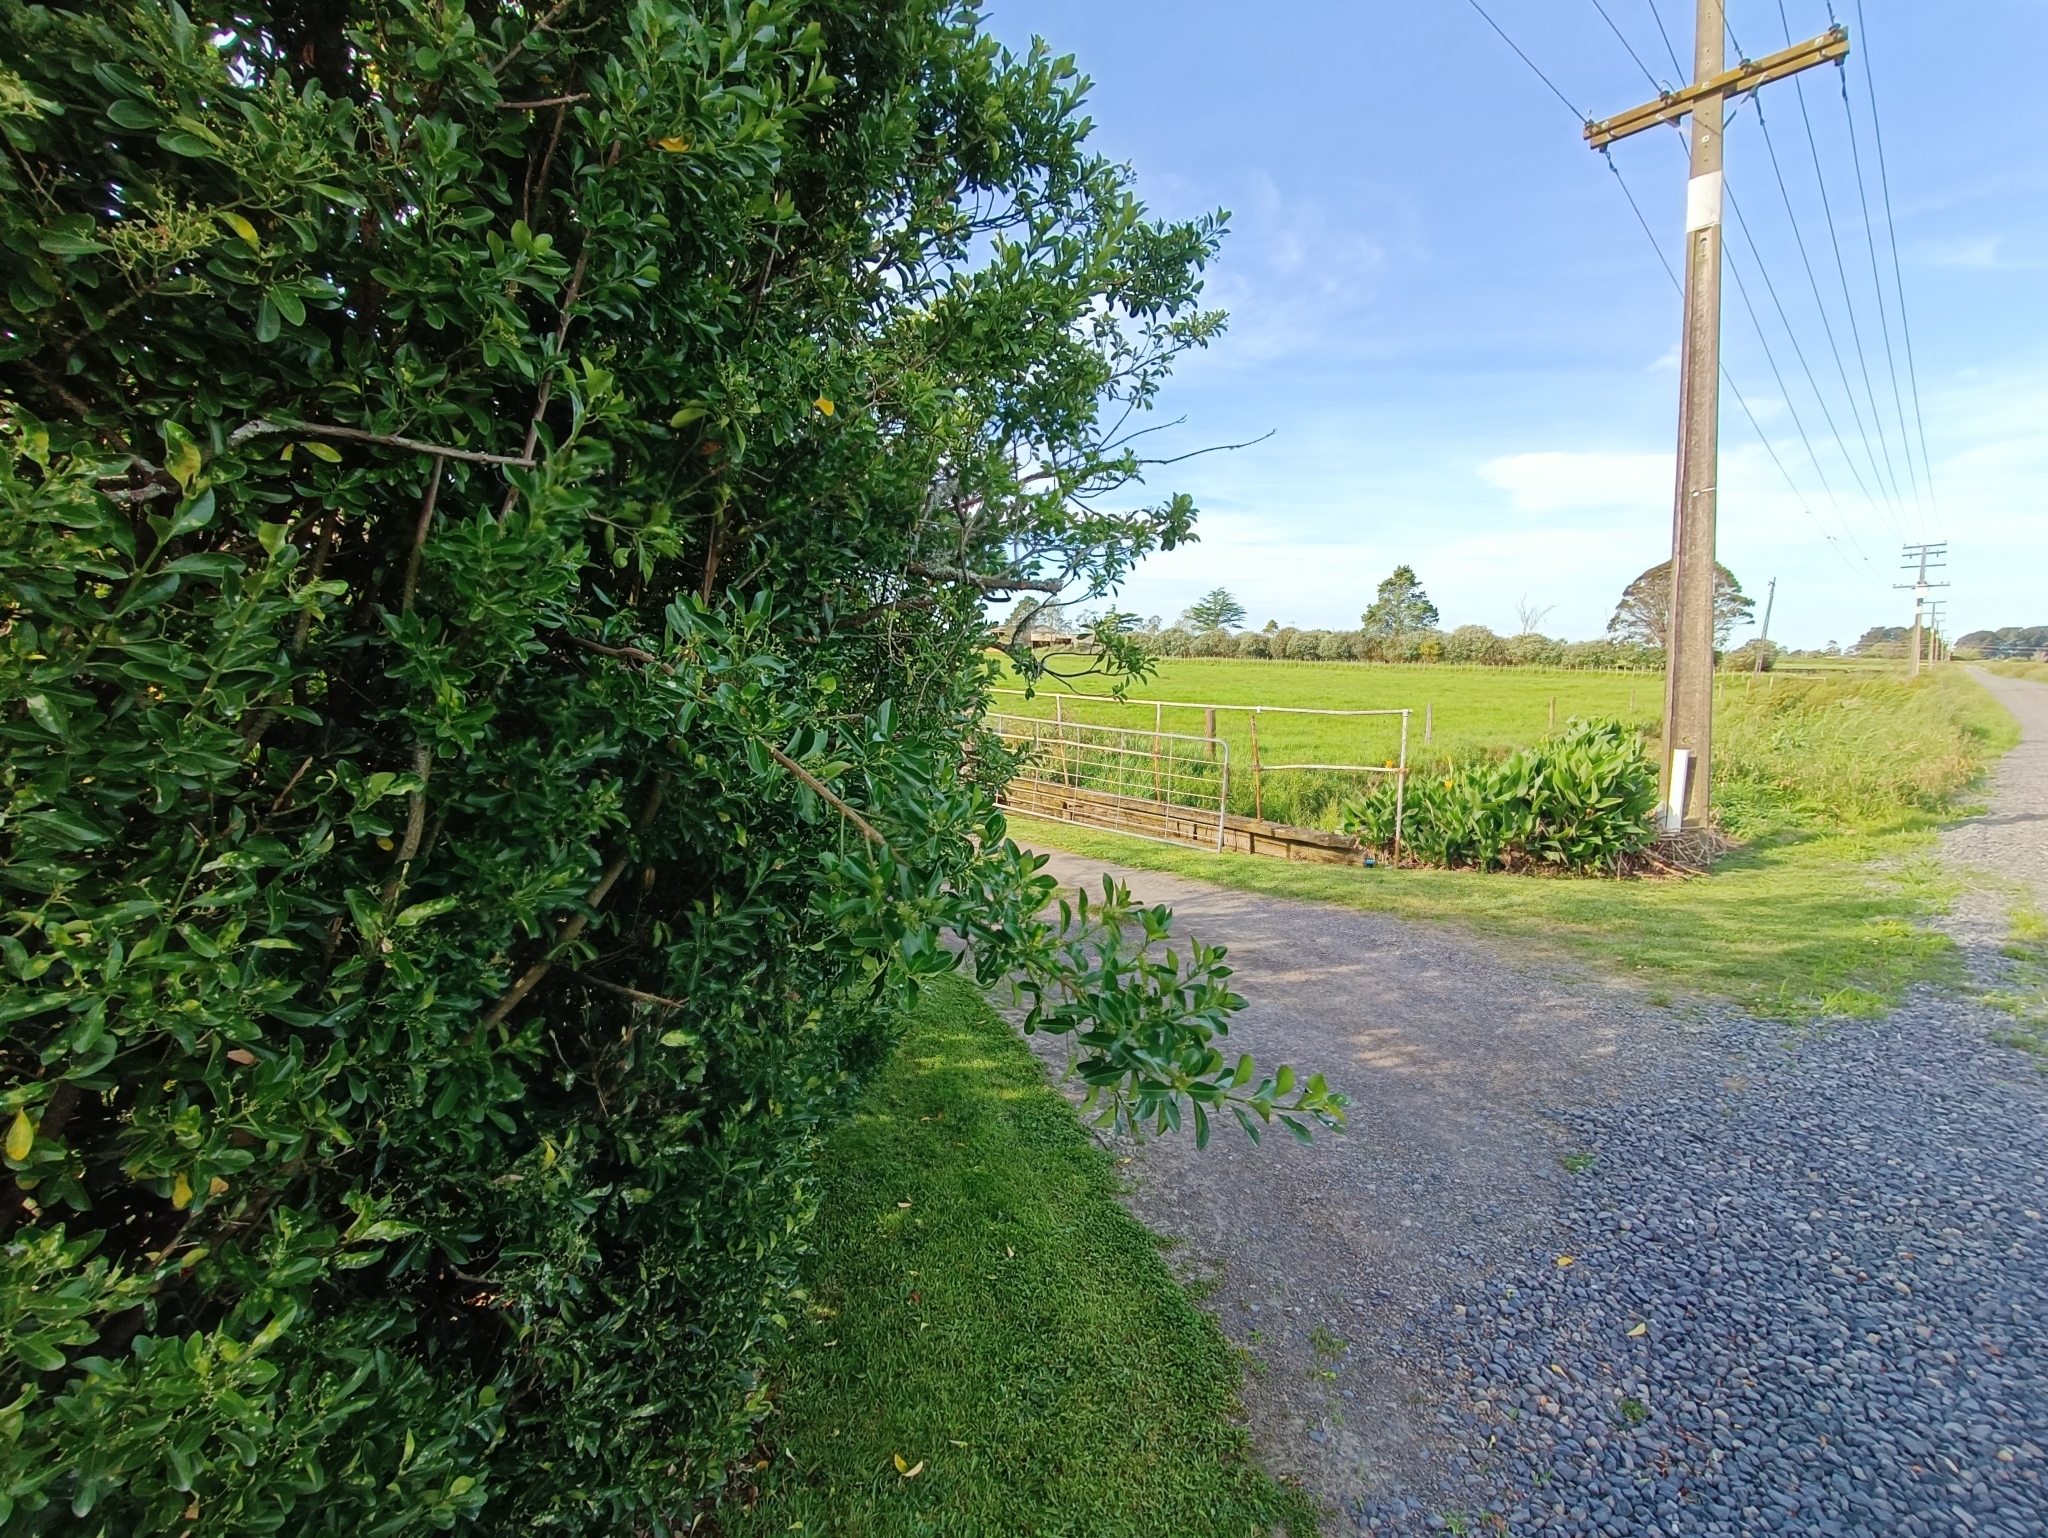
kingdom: Plantae
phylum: Tracheophyta
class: Magnoliopsida
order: Celastrales
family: Celastraceae
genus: Euonymus
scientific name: Euonymus japonicus
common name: Japanese spindletree
